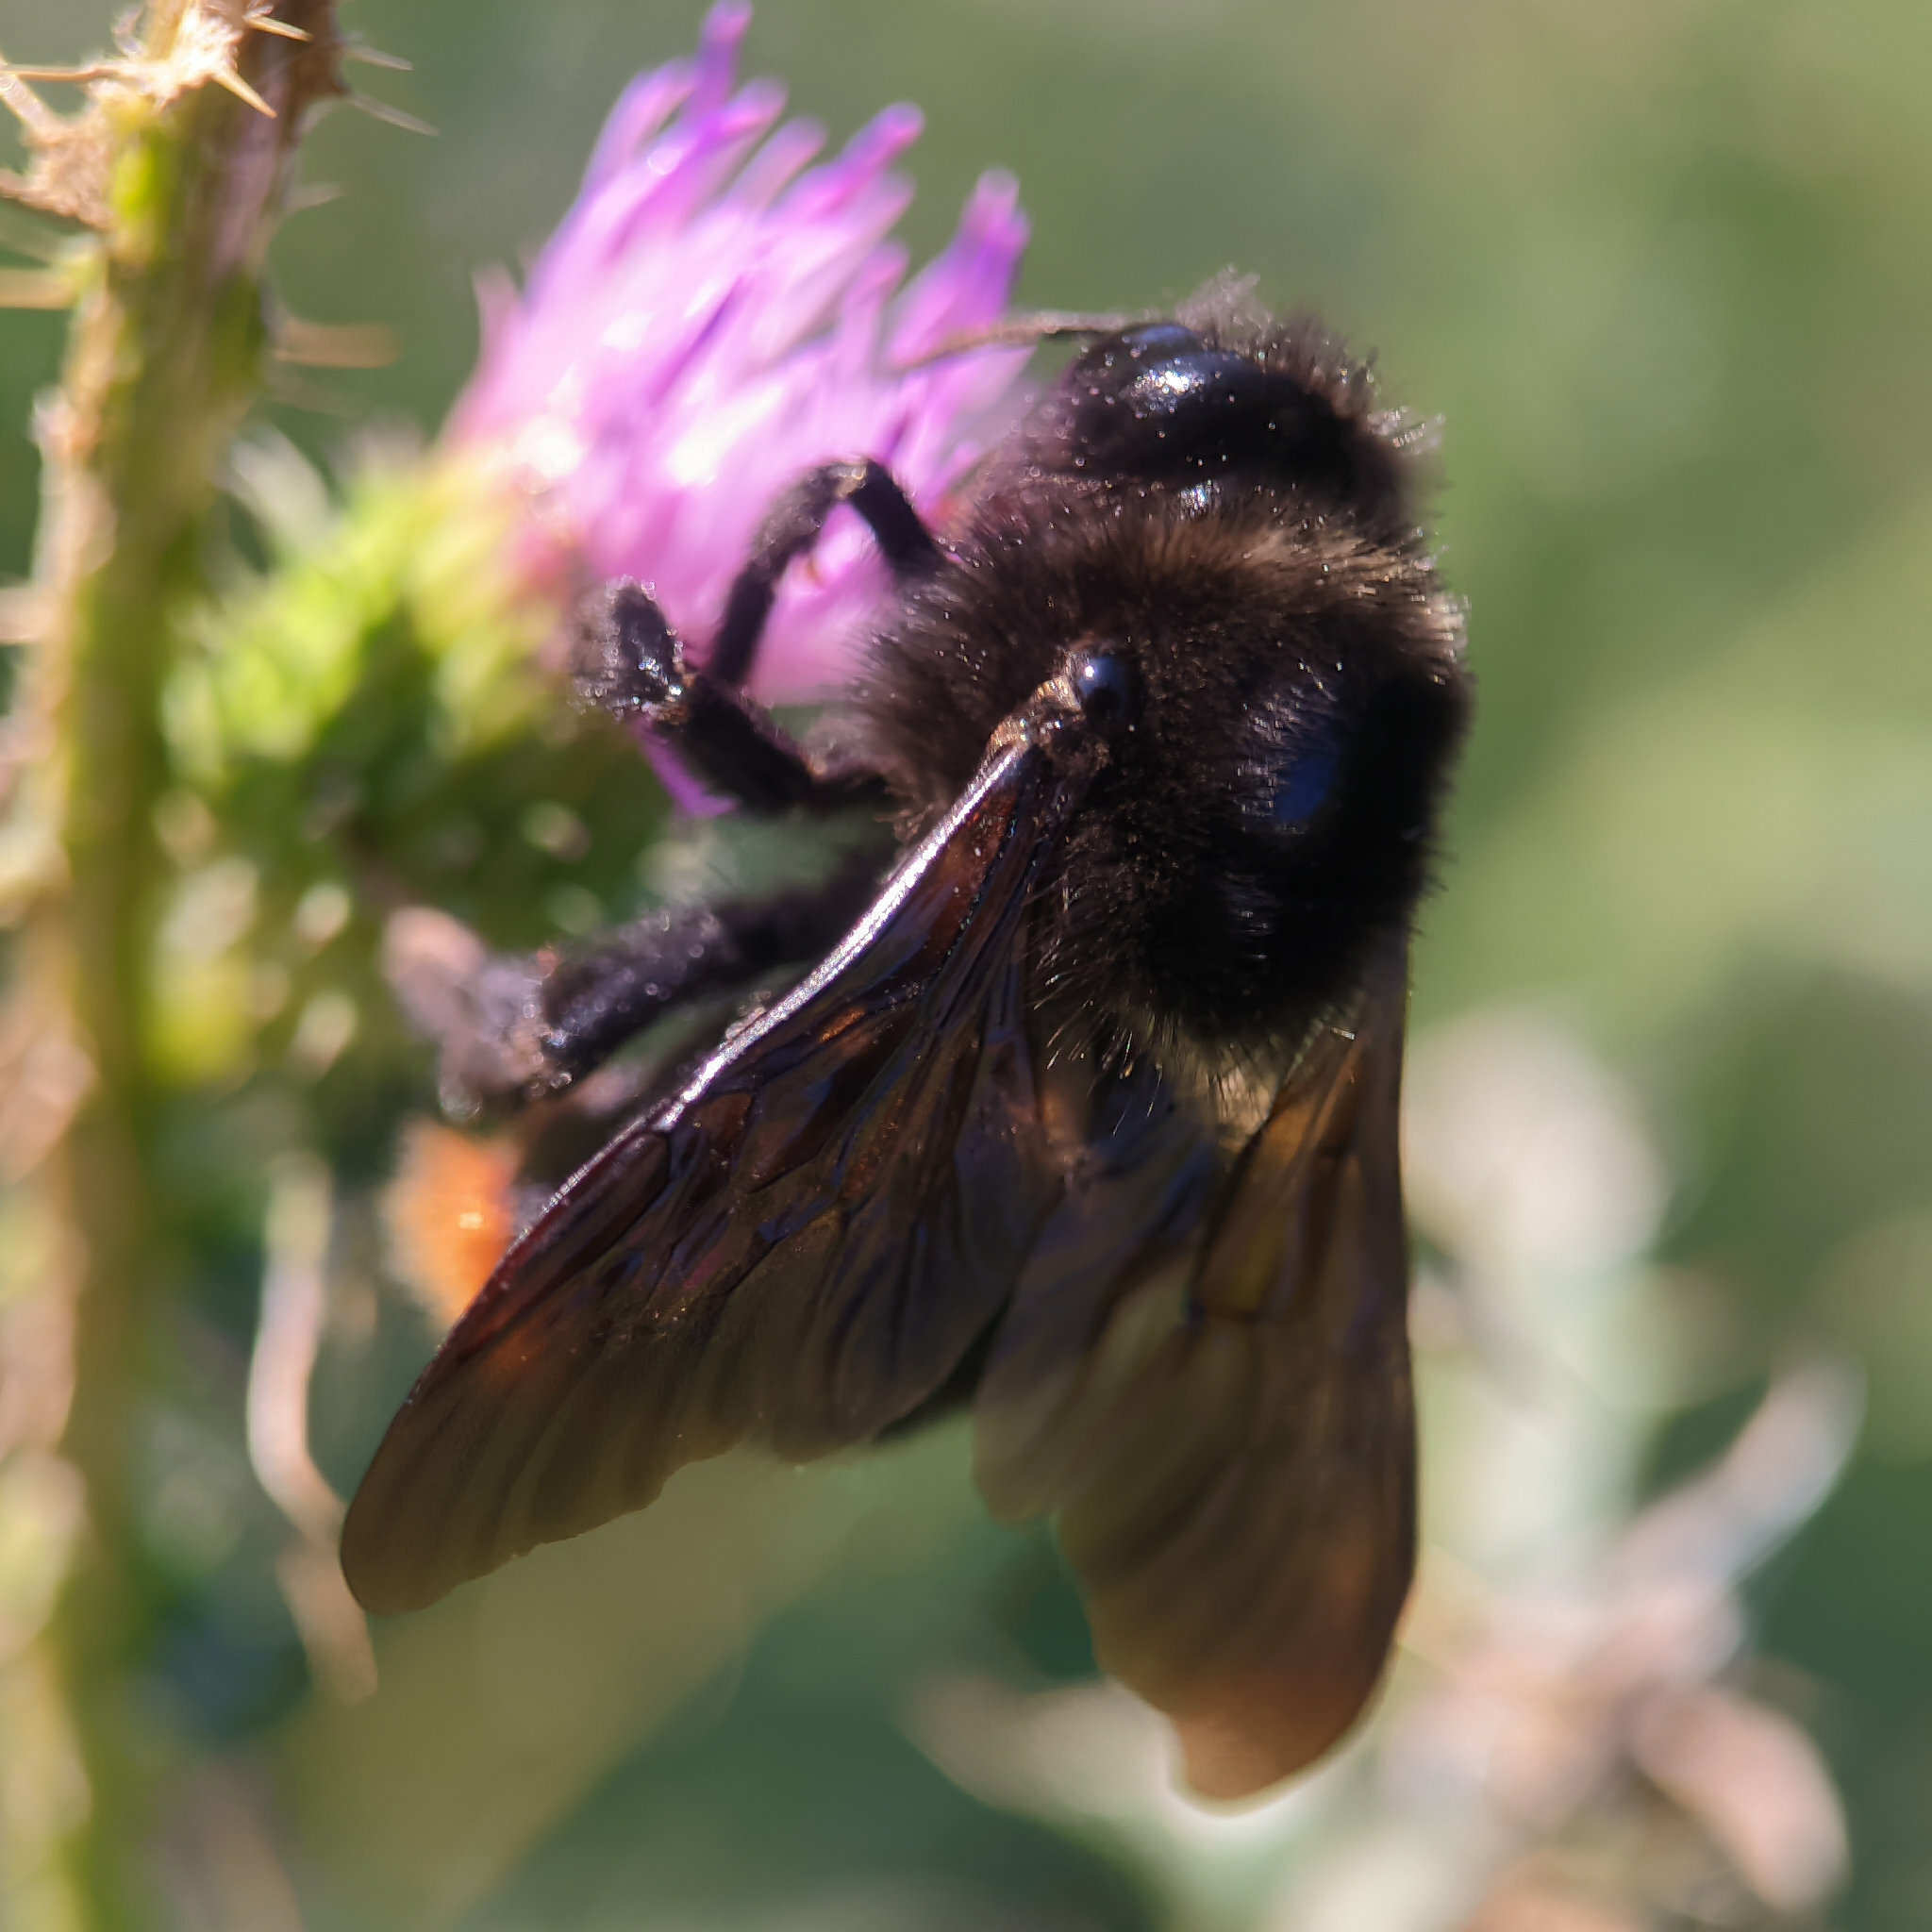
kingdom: Animalia
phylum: Arthropoda
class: Insecta
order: Hymenoptera
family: Apidae
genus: Bombus
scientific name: Bombus rupestris
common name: Hill cuckoo-bee
